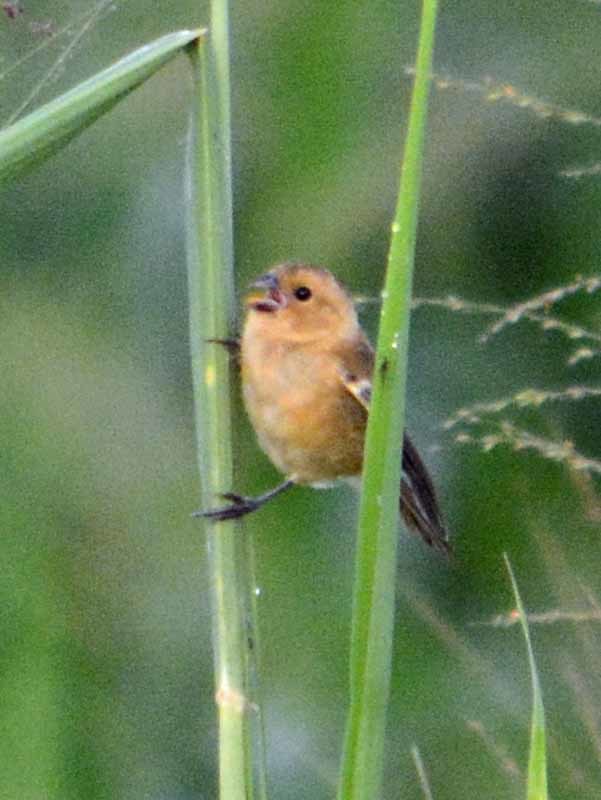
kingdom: Animalia
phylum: Chordata
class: Aves
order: Passeriformes
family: Thraupidae
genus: Sporophila
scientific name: Sporophila morelleti
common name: Morelet's seedeater
